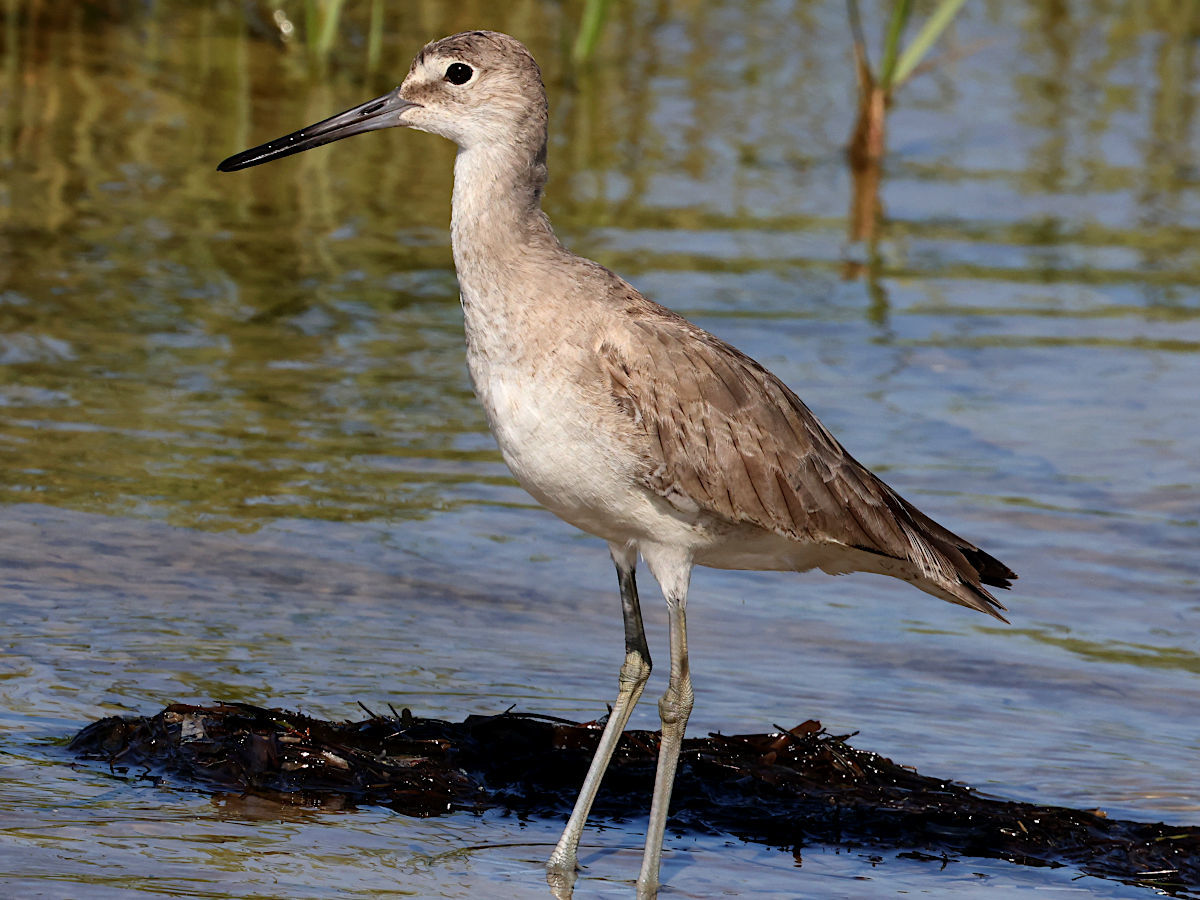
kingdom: Animalia
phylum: Chordata
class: Aves
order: Charadriiformes
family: Scolopacidae
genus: Tringa
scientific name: Tringa semipalmata
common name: Willet
